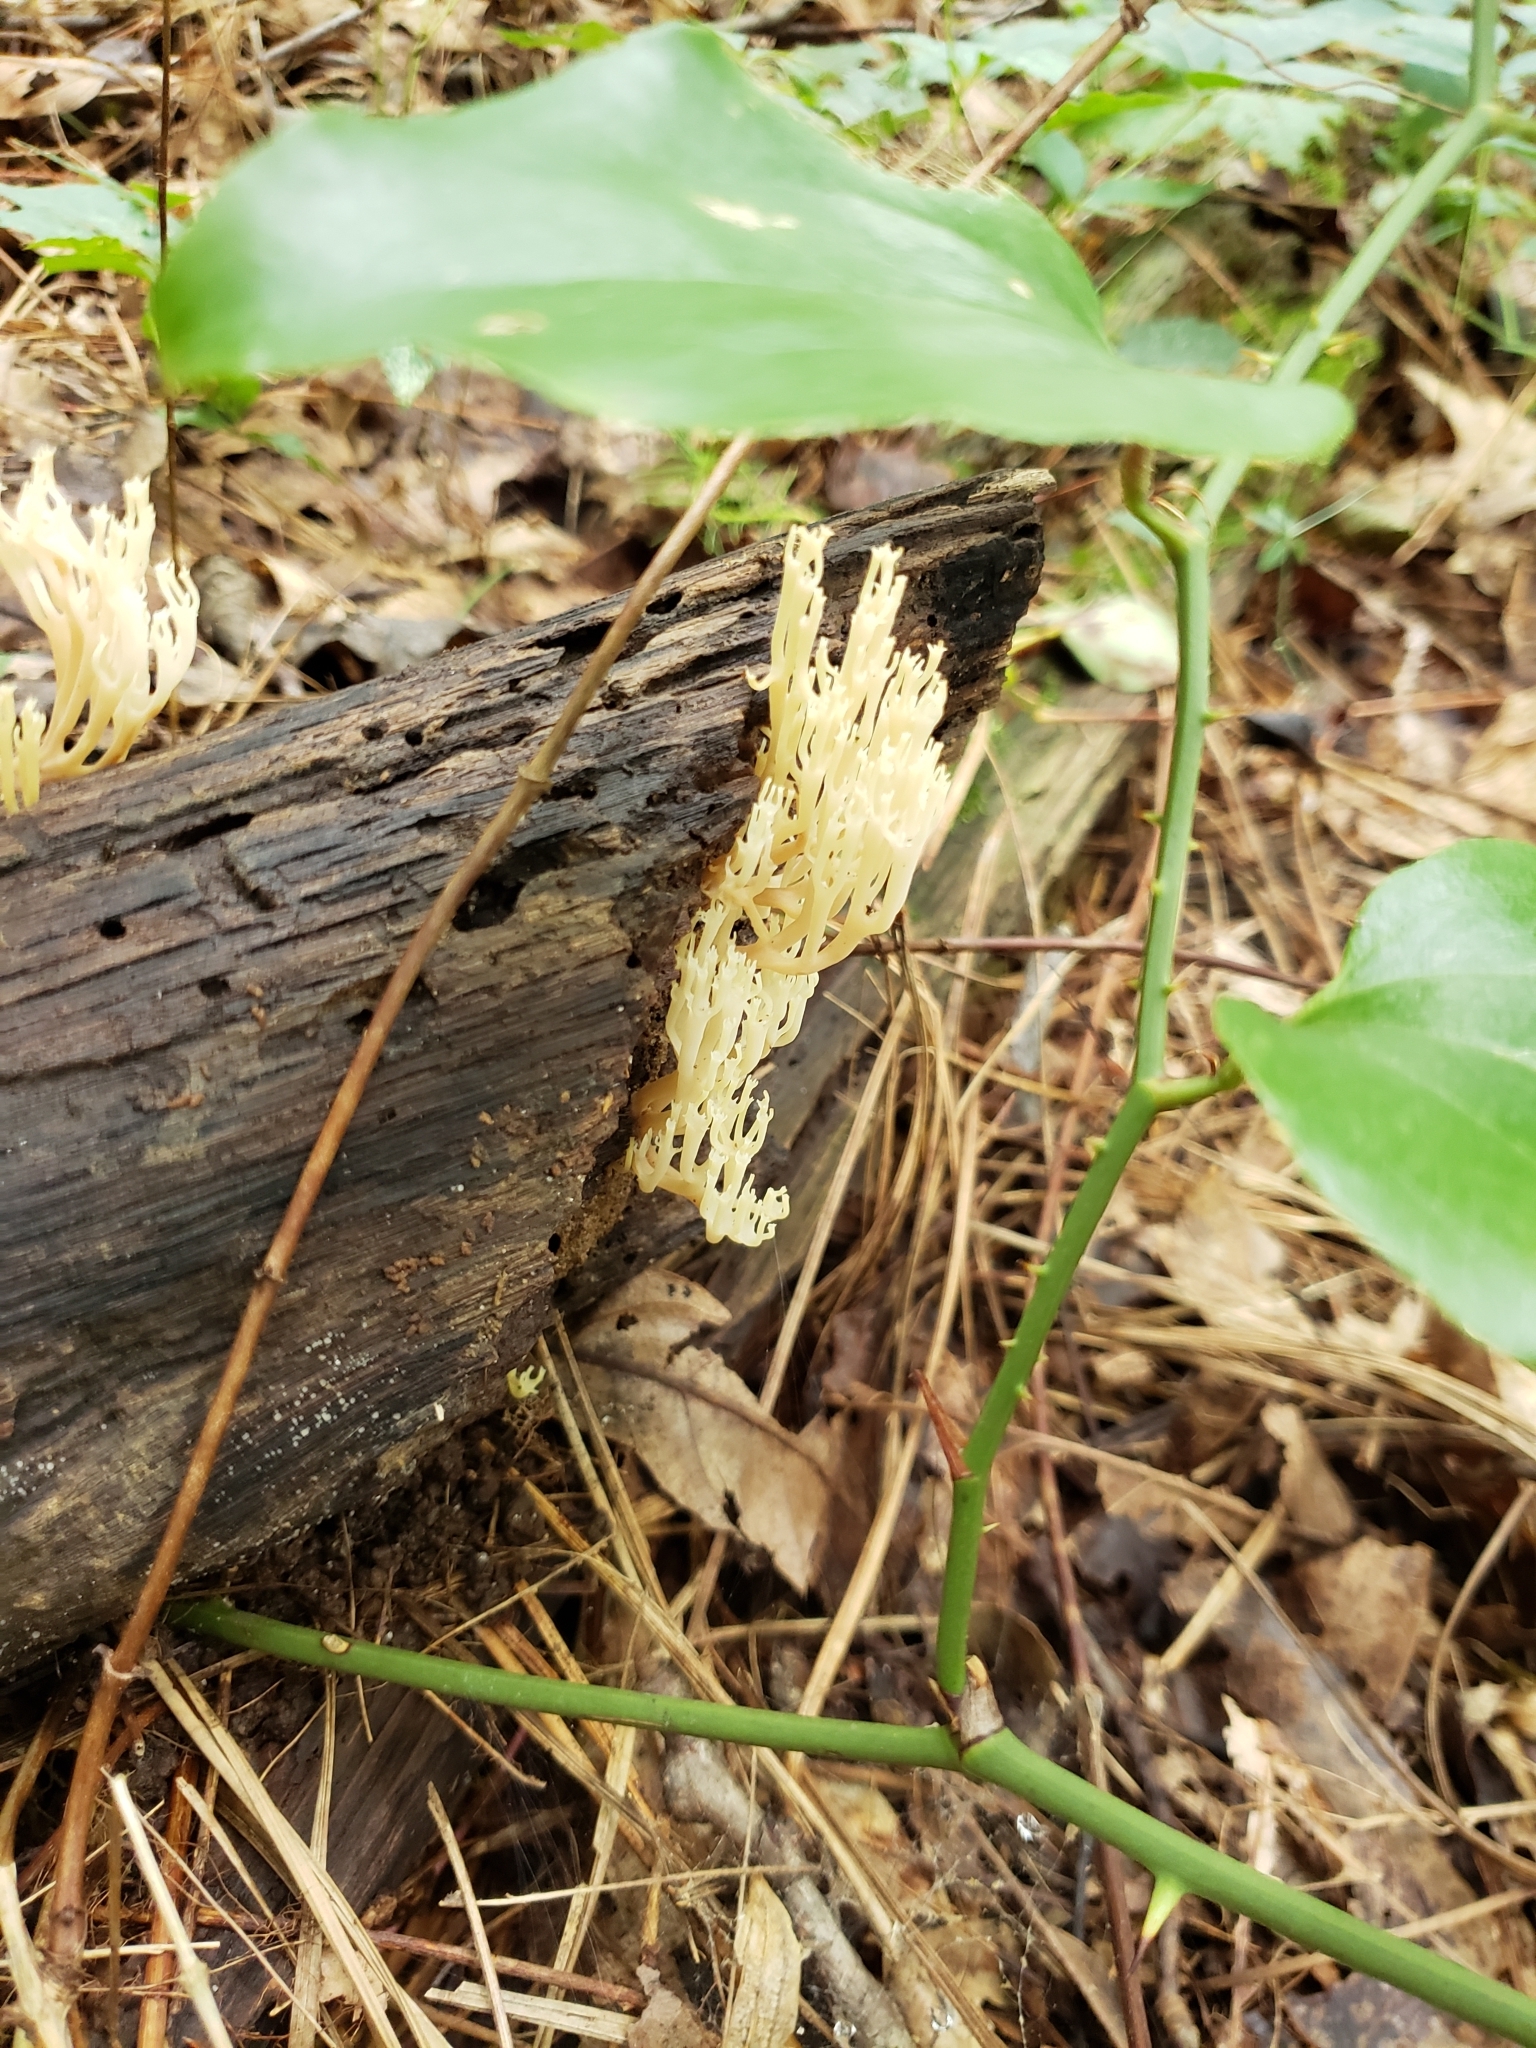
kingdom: Fungi
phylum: Basidiomycota
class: Agaricomycetes
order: Russulales
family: Auriscalpiaceae
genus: Artomyces
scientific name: Artomyces pyxidatus
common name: Crown-tipped coral fungus
